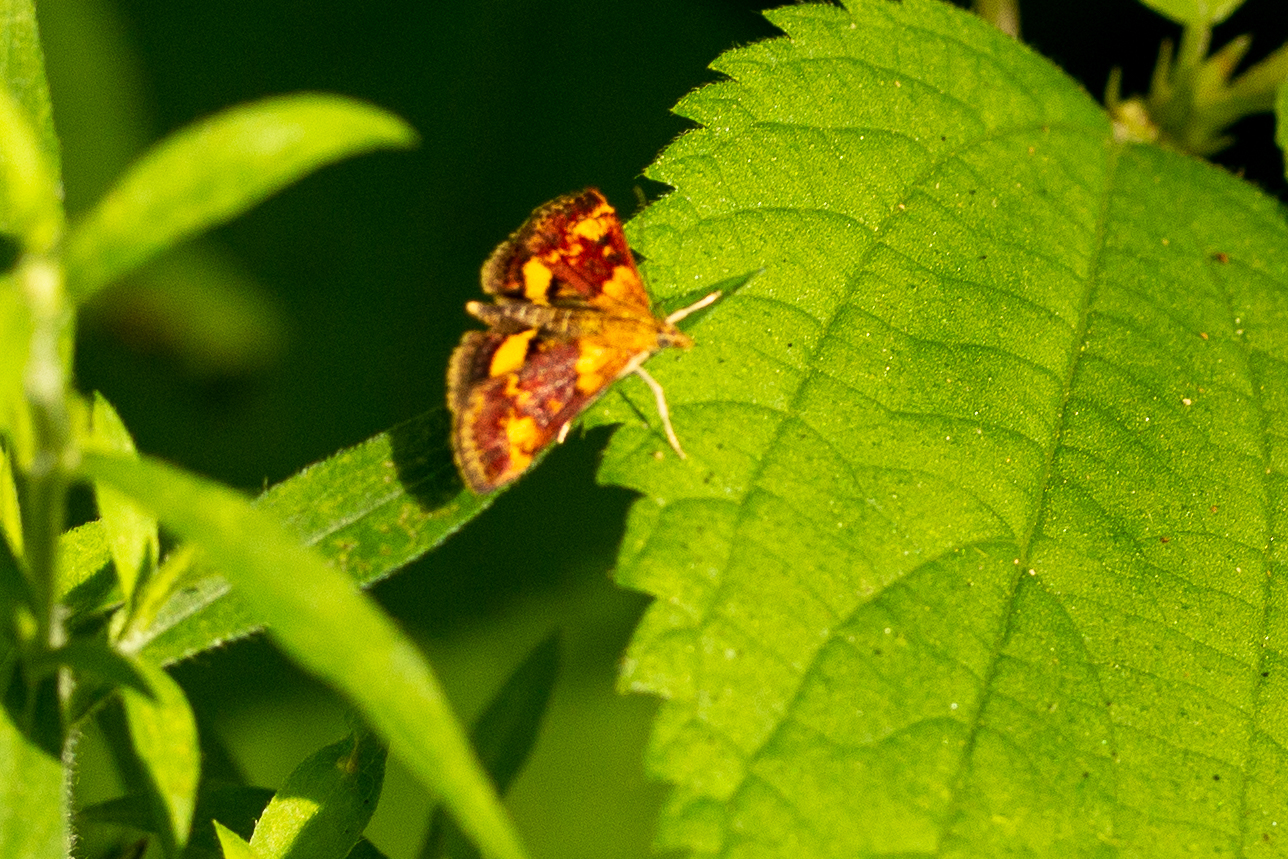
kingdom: Animalia
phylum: Arthropoda
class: Insecta
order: Lepidoptera
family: Crambidae
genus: Pyrausta
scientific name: Pyrausta orphisalis
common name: Orange mint moth
